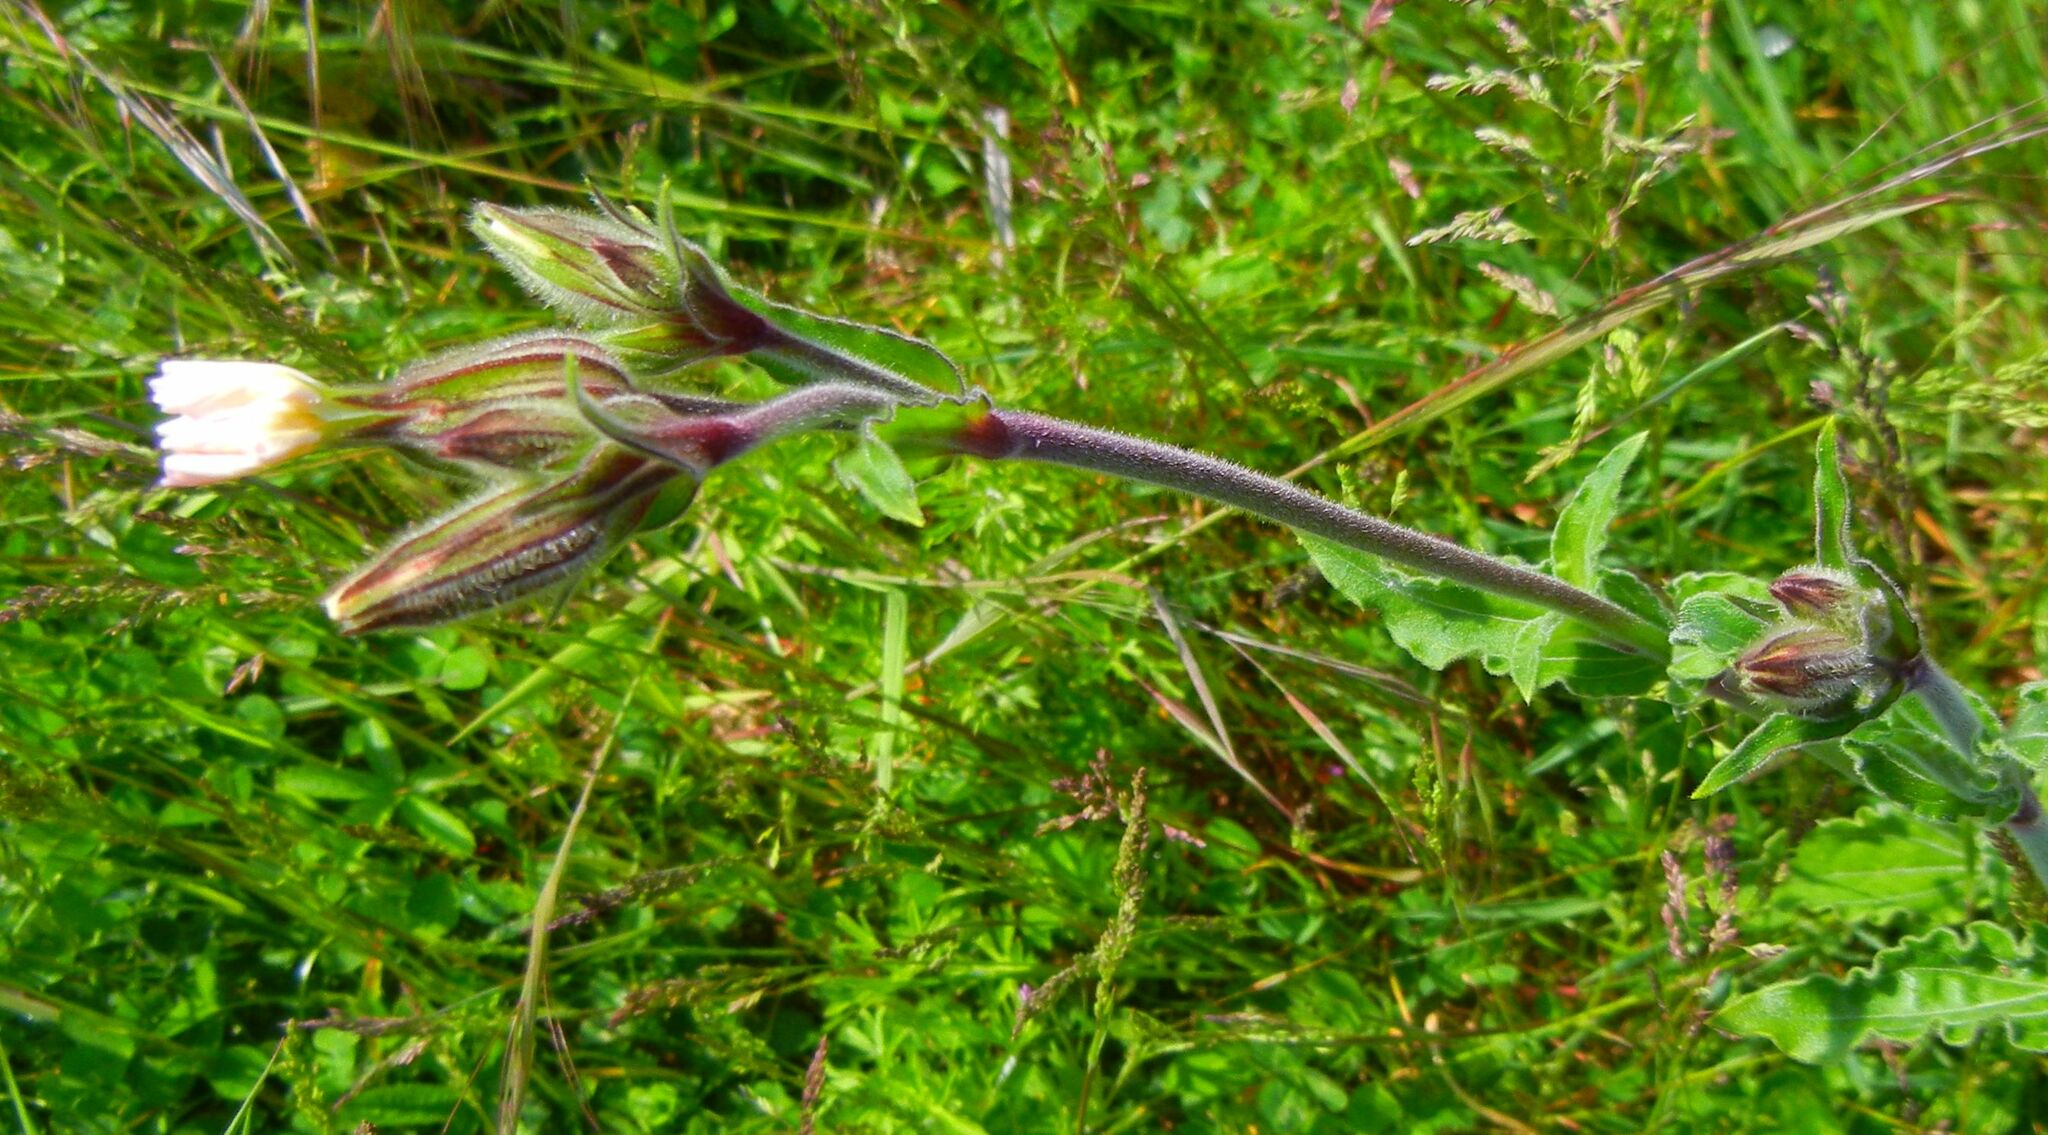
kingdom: Plantae
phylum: Tracheophyta
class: Magnoliopsida
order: Caryophyllales
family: Caryophyllaceae
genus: Silene
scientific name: Silene latifolia
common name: White campion
